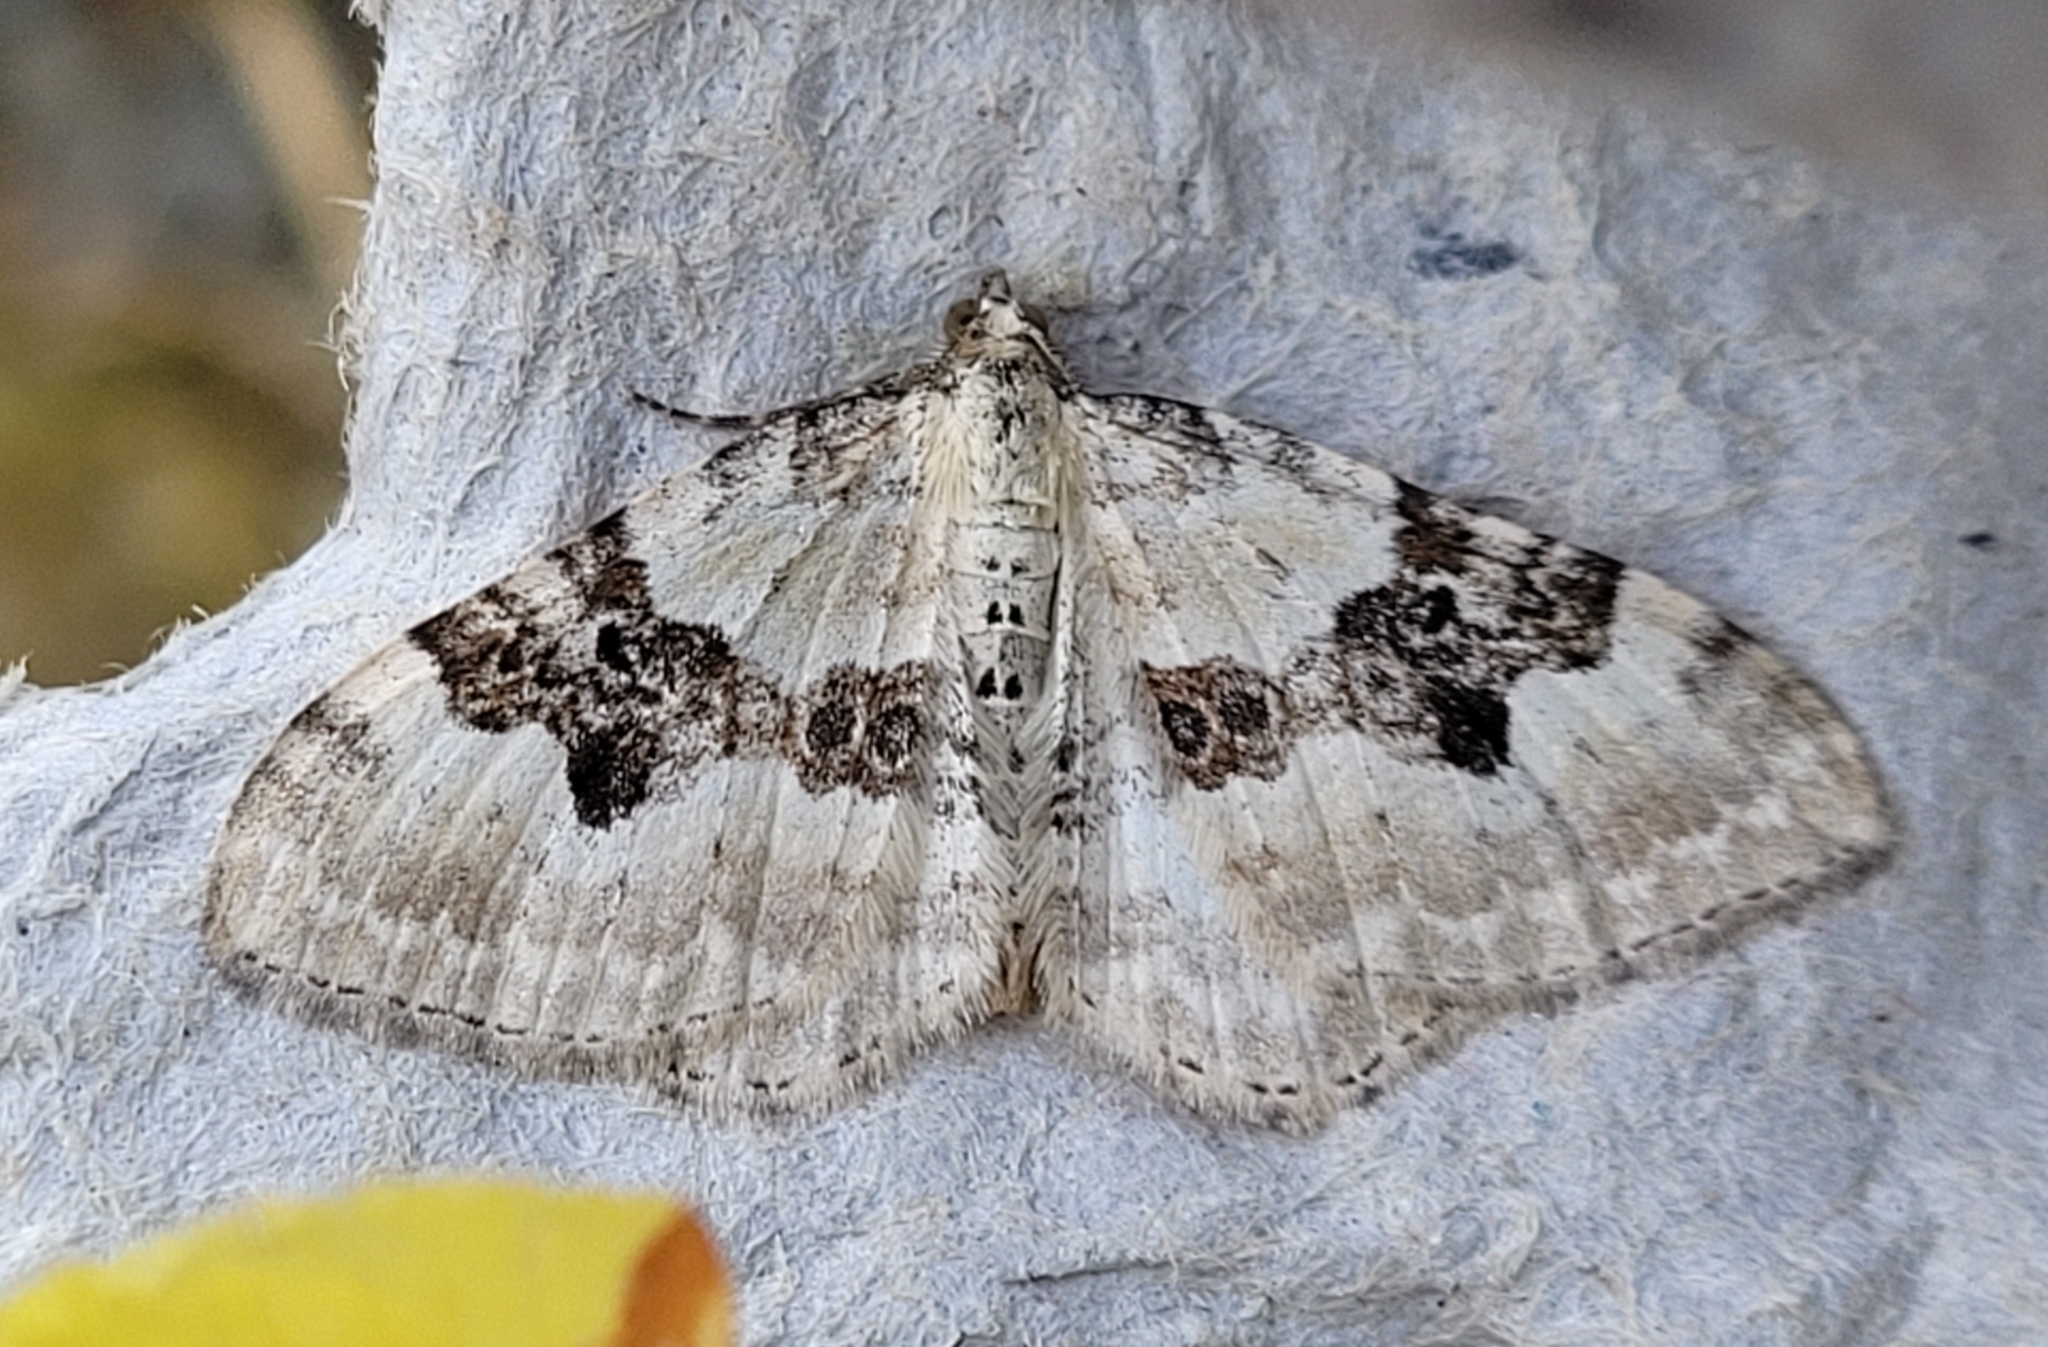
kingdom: Animalia
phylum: Arthropoda
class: Insecta
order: Lepidoptera
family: Geometridae
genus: Xanthorhoe
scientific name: Xanthorhoe montanata
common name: Silver-ground carpet
